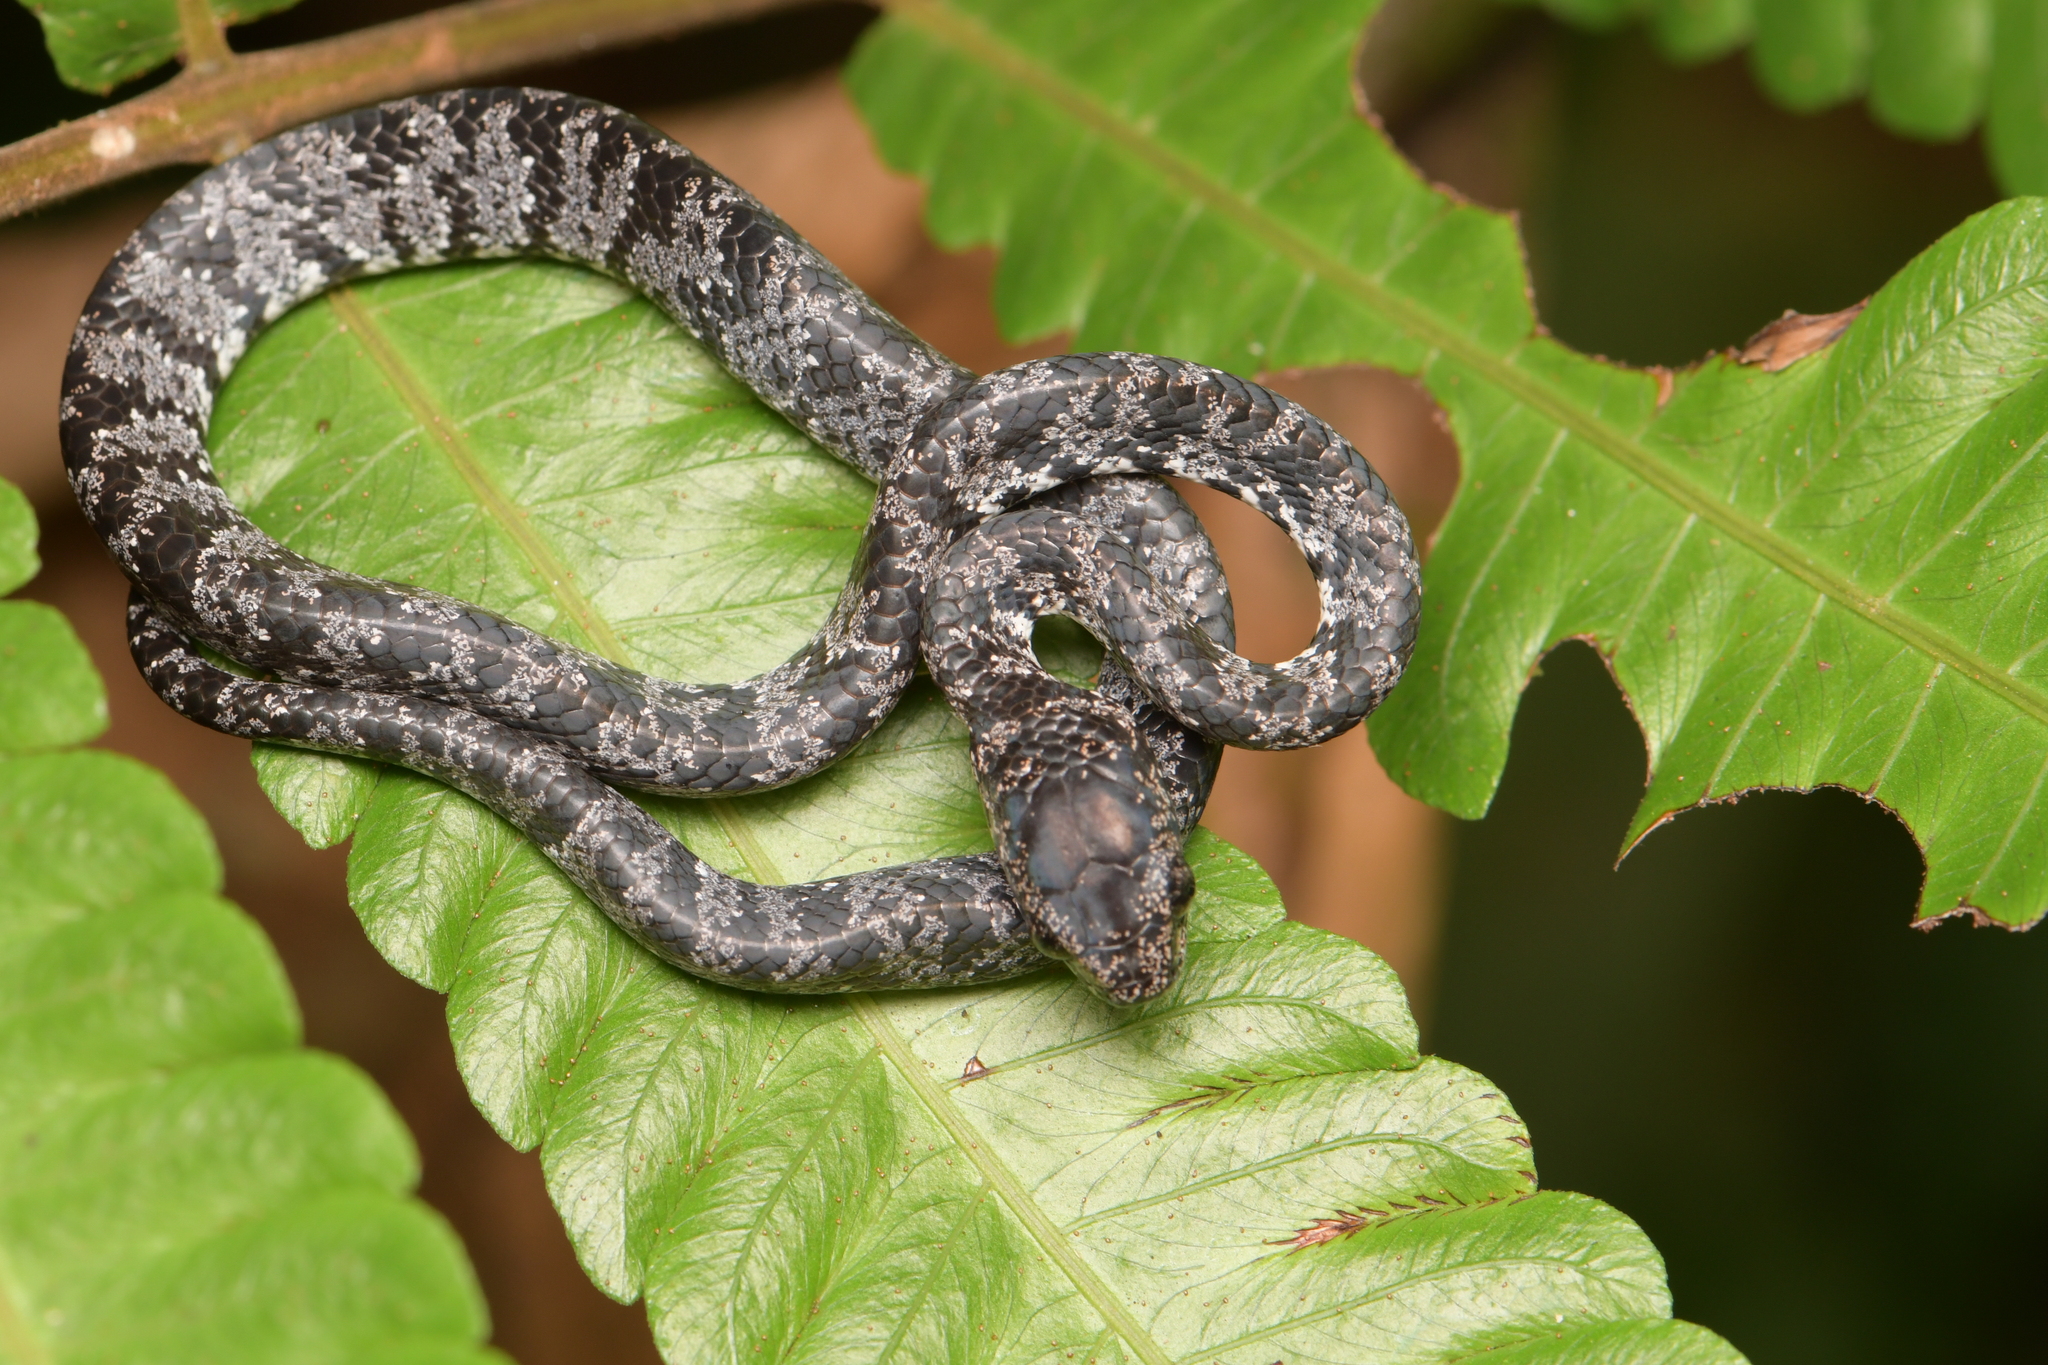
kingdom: Animalia
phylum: Chordata
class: Squamata
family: Colubridae
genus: Sibon
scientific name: Sibon nebulatus
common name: Cloudy snail-eating snake
